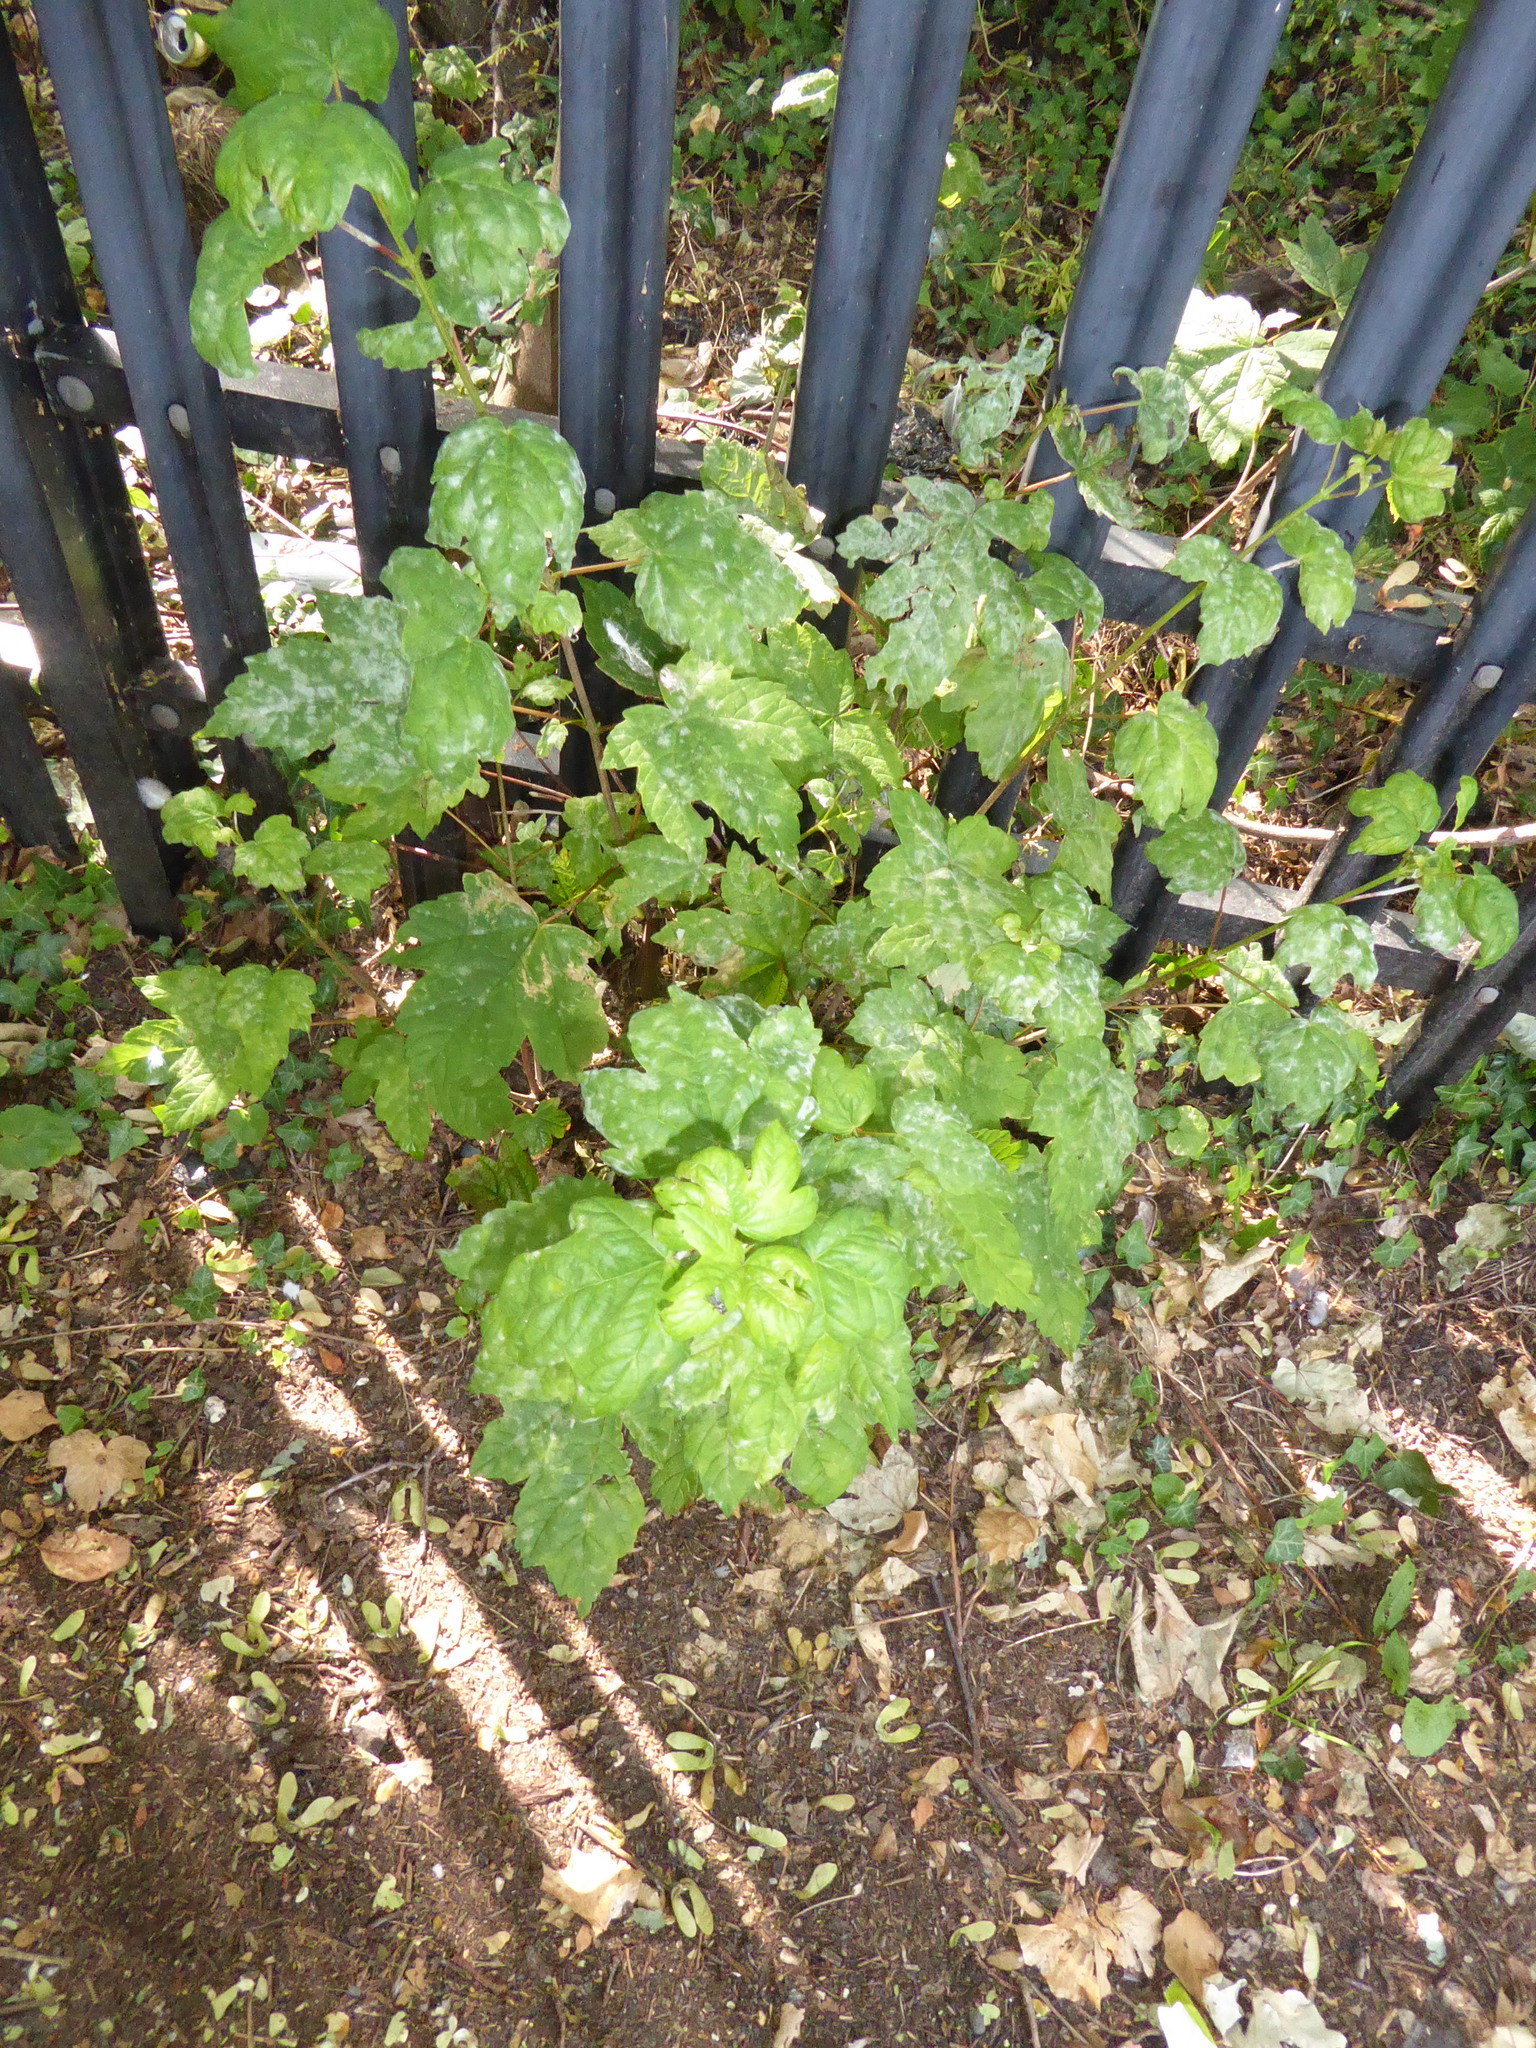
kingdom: Fungi
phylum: Ascomycota
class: Leotiomycetes
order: Helotiales
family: Erysiphaceae
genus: Sawadaea
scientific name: Sawadaea bicornis
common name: Maple mildew
